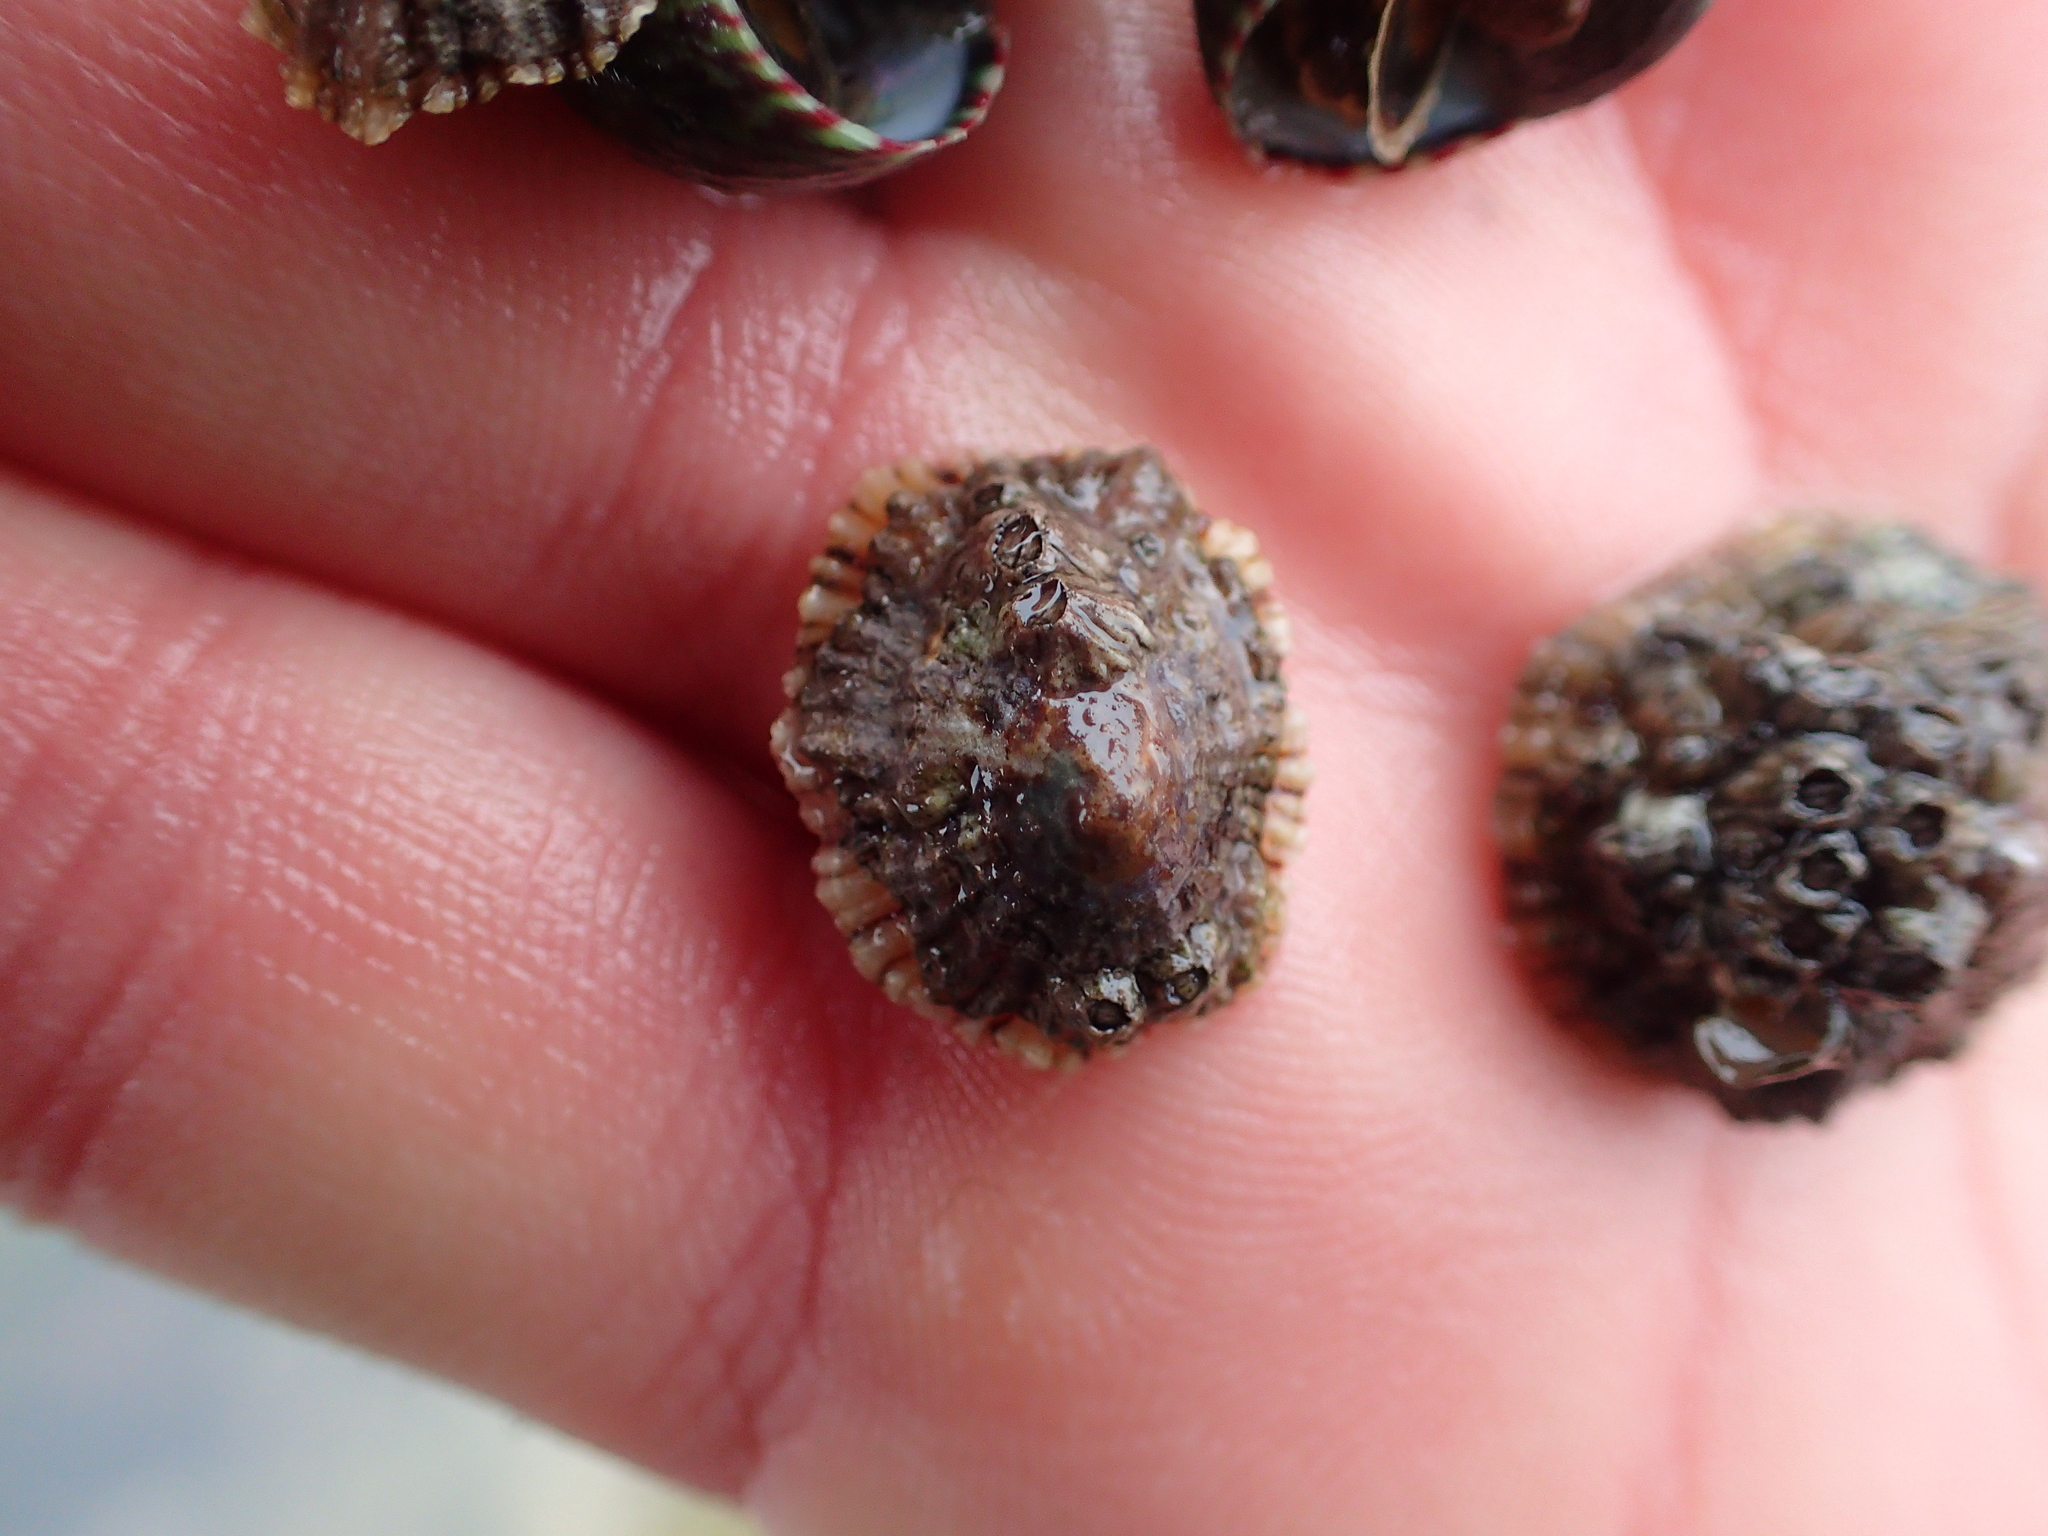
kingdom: Animalia
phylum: Mollusca
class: Gastropoda
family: Patellidae
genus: Patella
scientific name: Patella depressa
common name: Black-footed limpet
